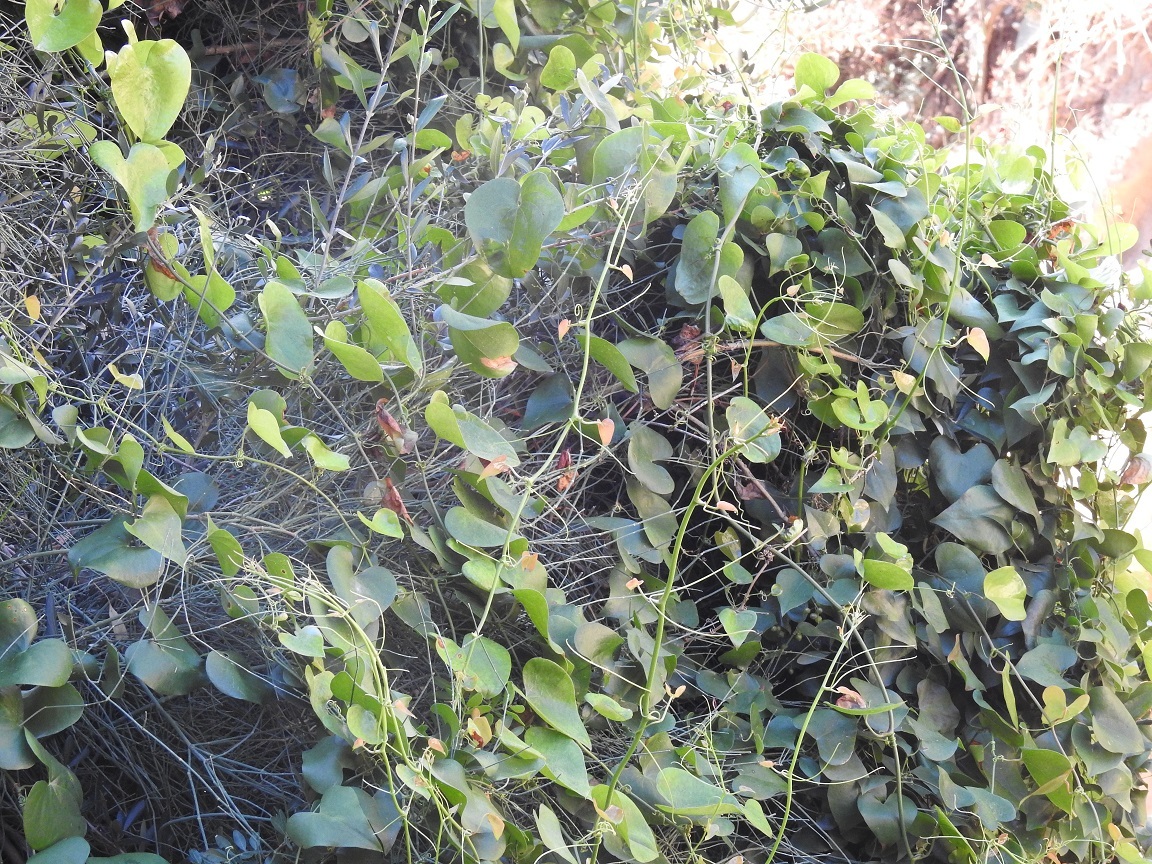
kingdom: Plantae
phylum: Tracheophyta
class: Liliopsida
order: Liliales
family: Smilacaceae
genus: Smilax
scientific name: Smilax aspera
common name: Common smilax
